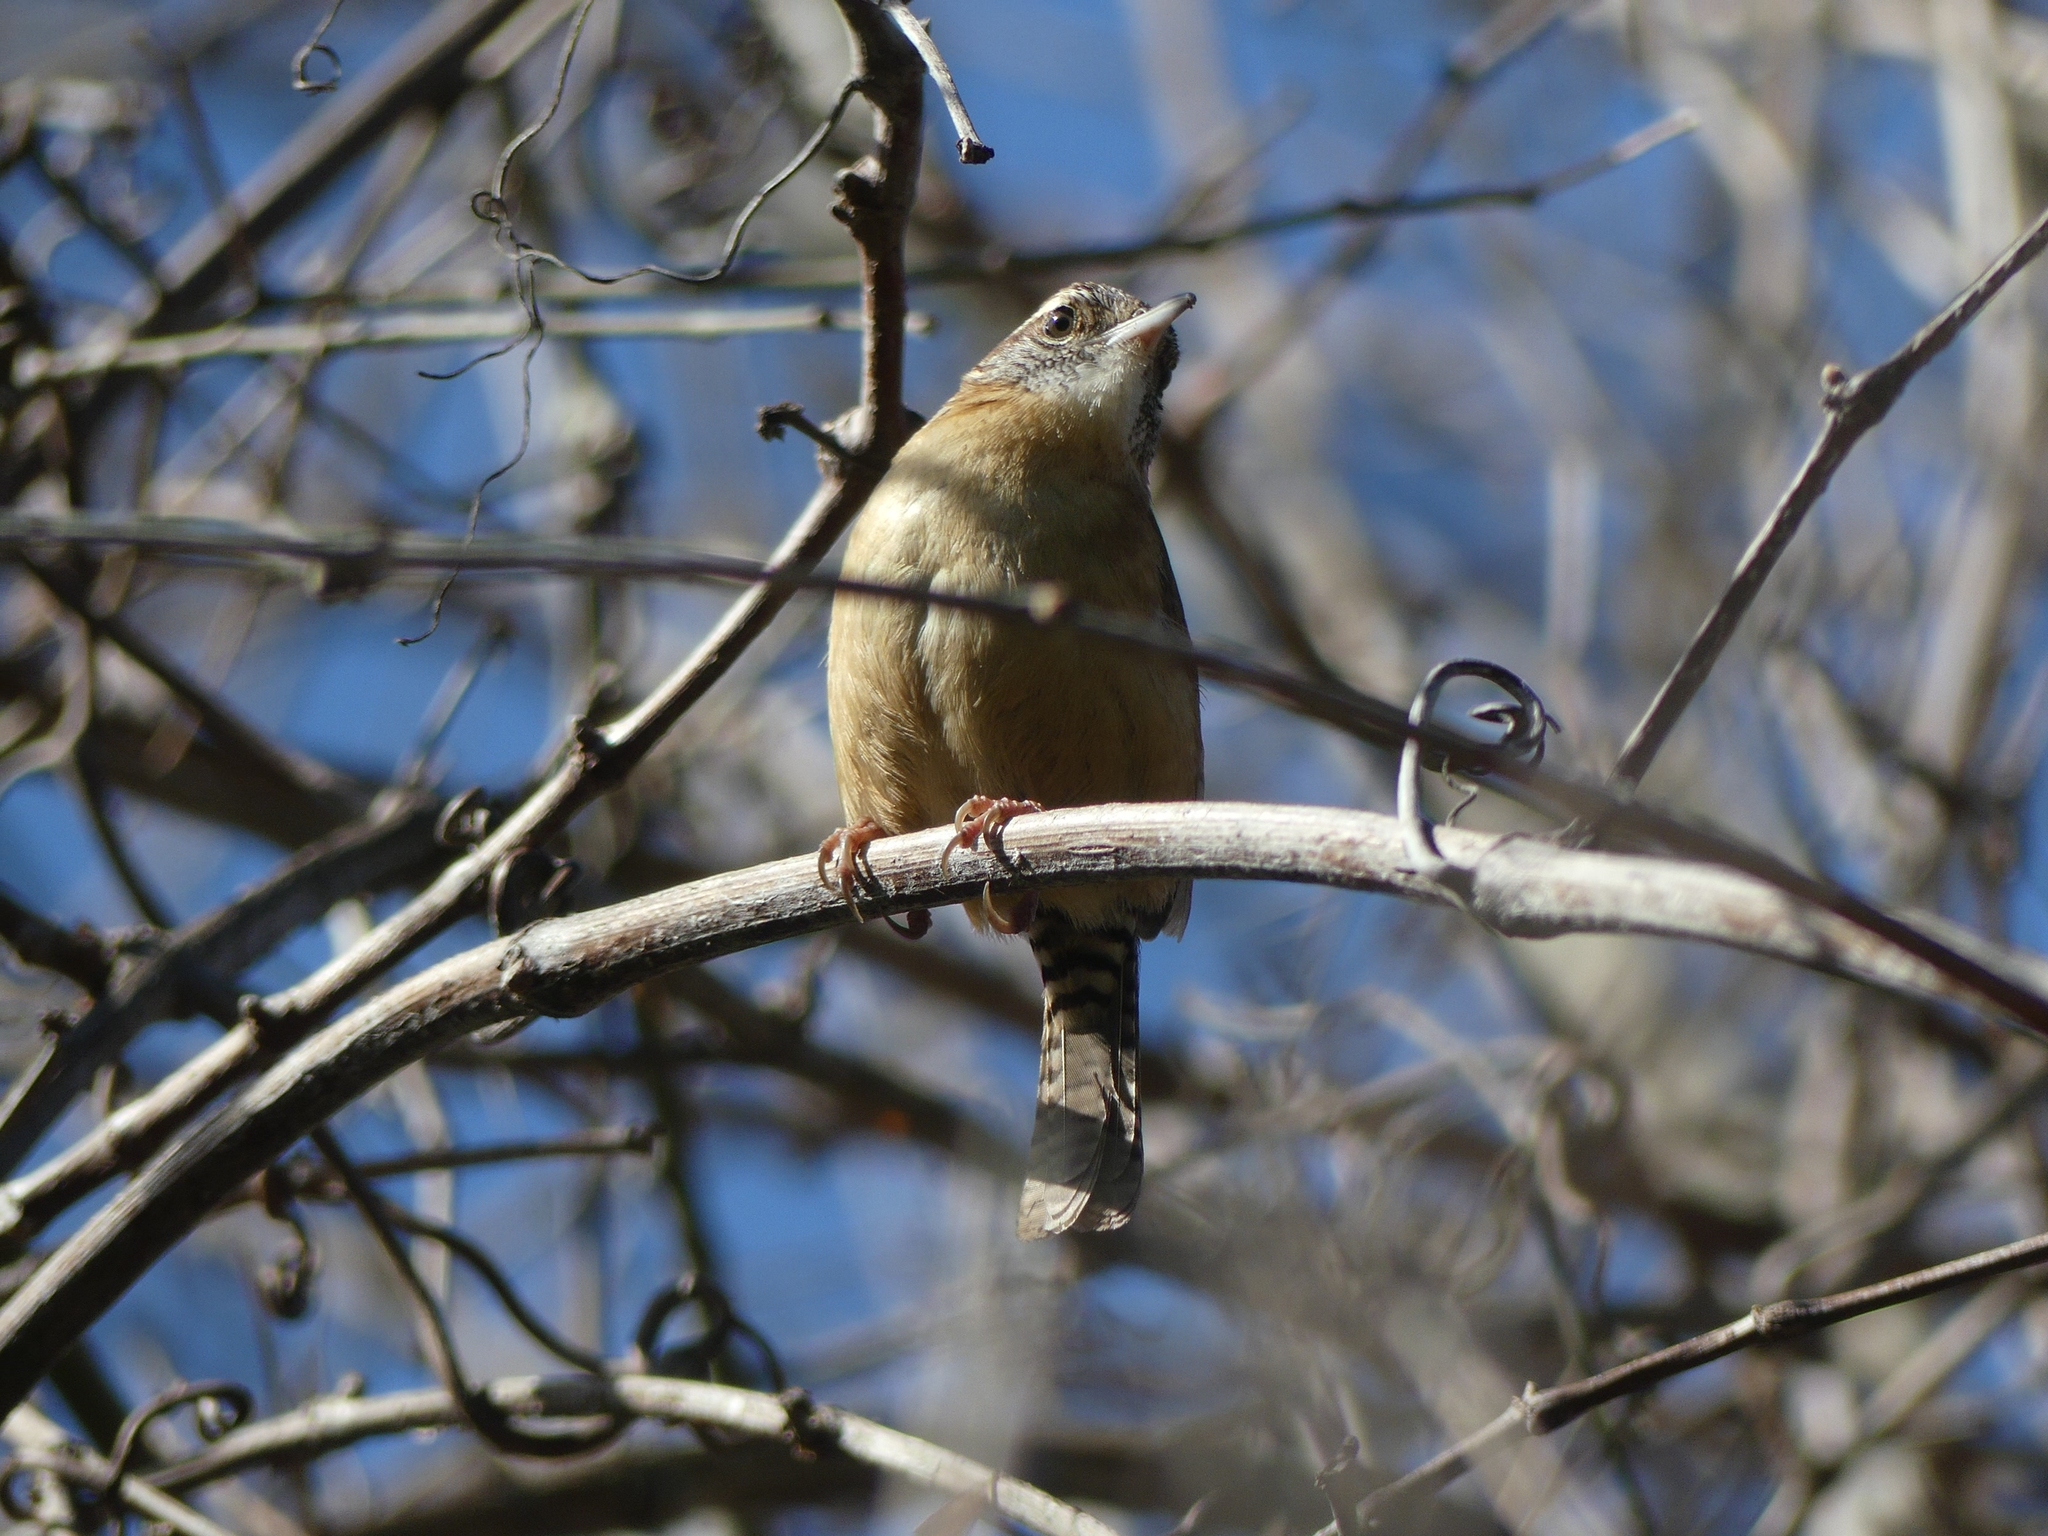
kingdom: Animalia
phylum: Chordata
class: Aves
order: Passeriformes
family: Troglodytidae
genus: Thryothorus
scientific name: Thryothorus ludovicianus
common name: Carolina wren
